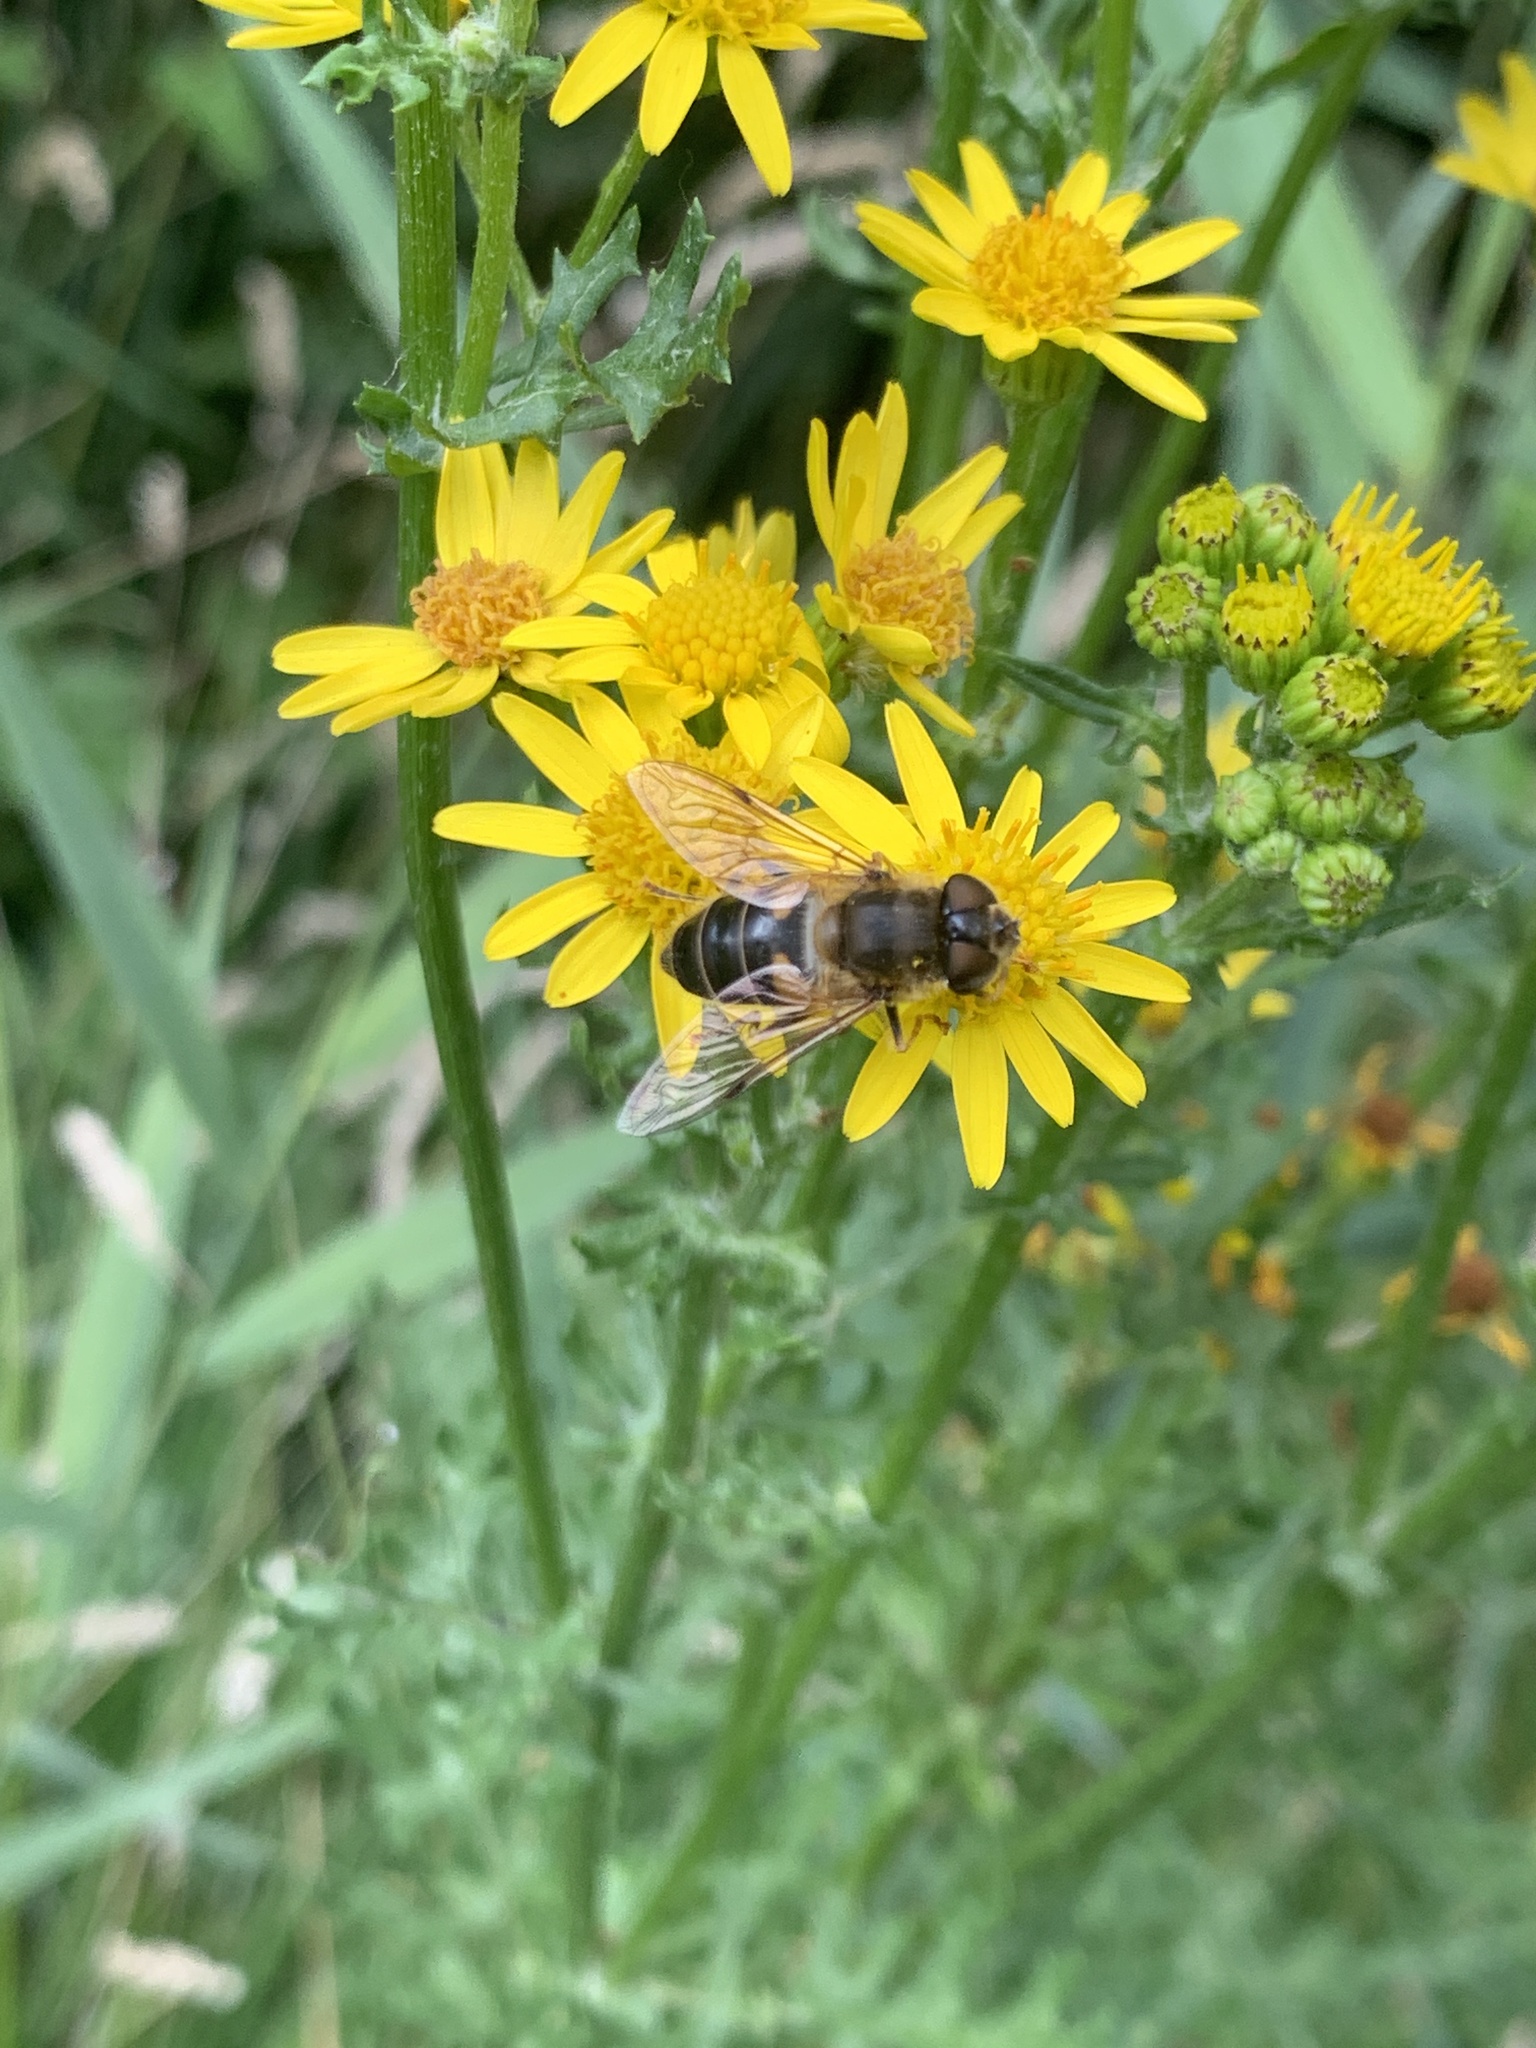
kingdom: Animalia
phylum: Arthropoda
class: Insecta
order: Diptera
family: Syrphidae
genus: Eristalis
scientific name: Eristalis pertinax
